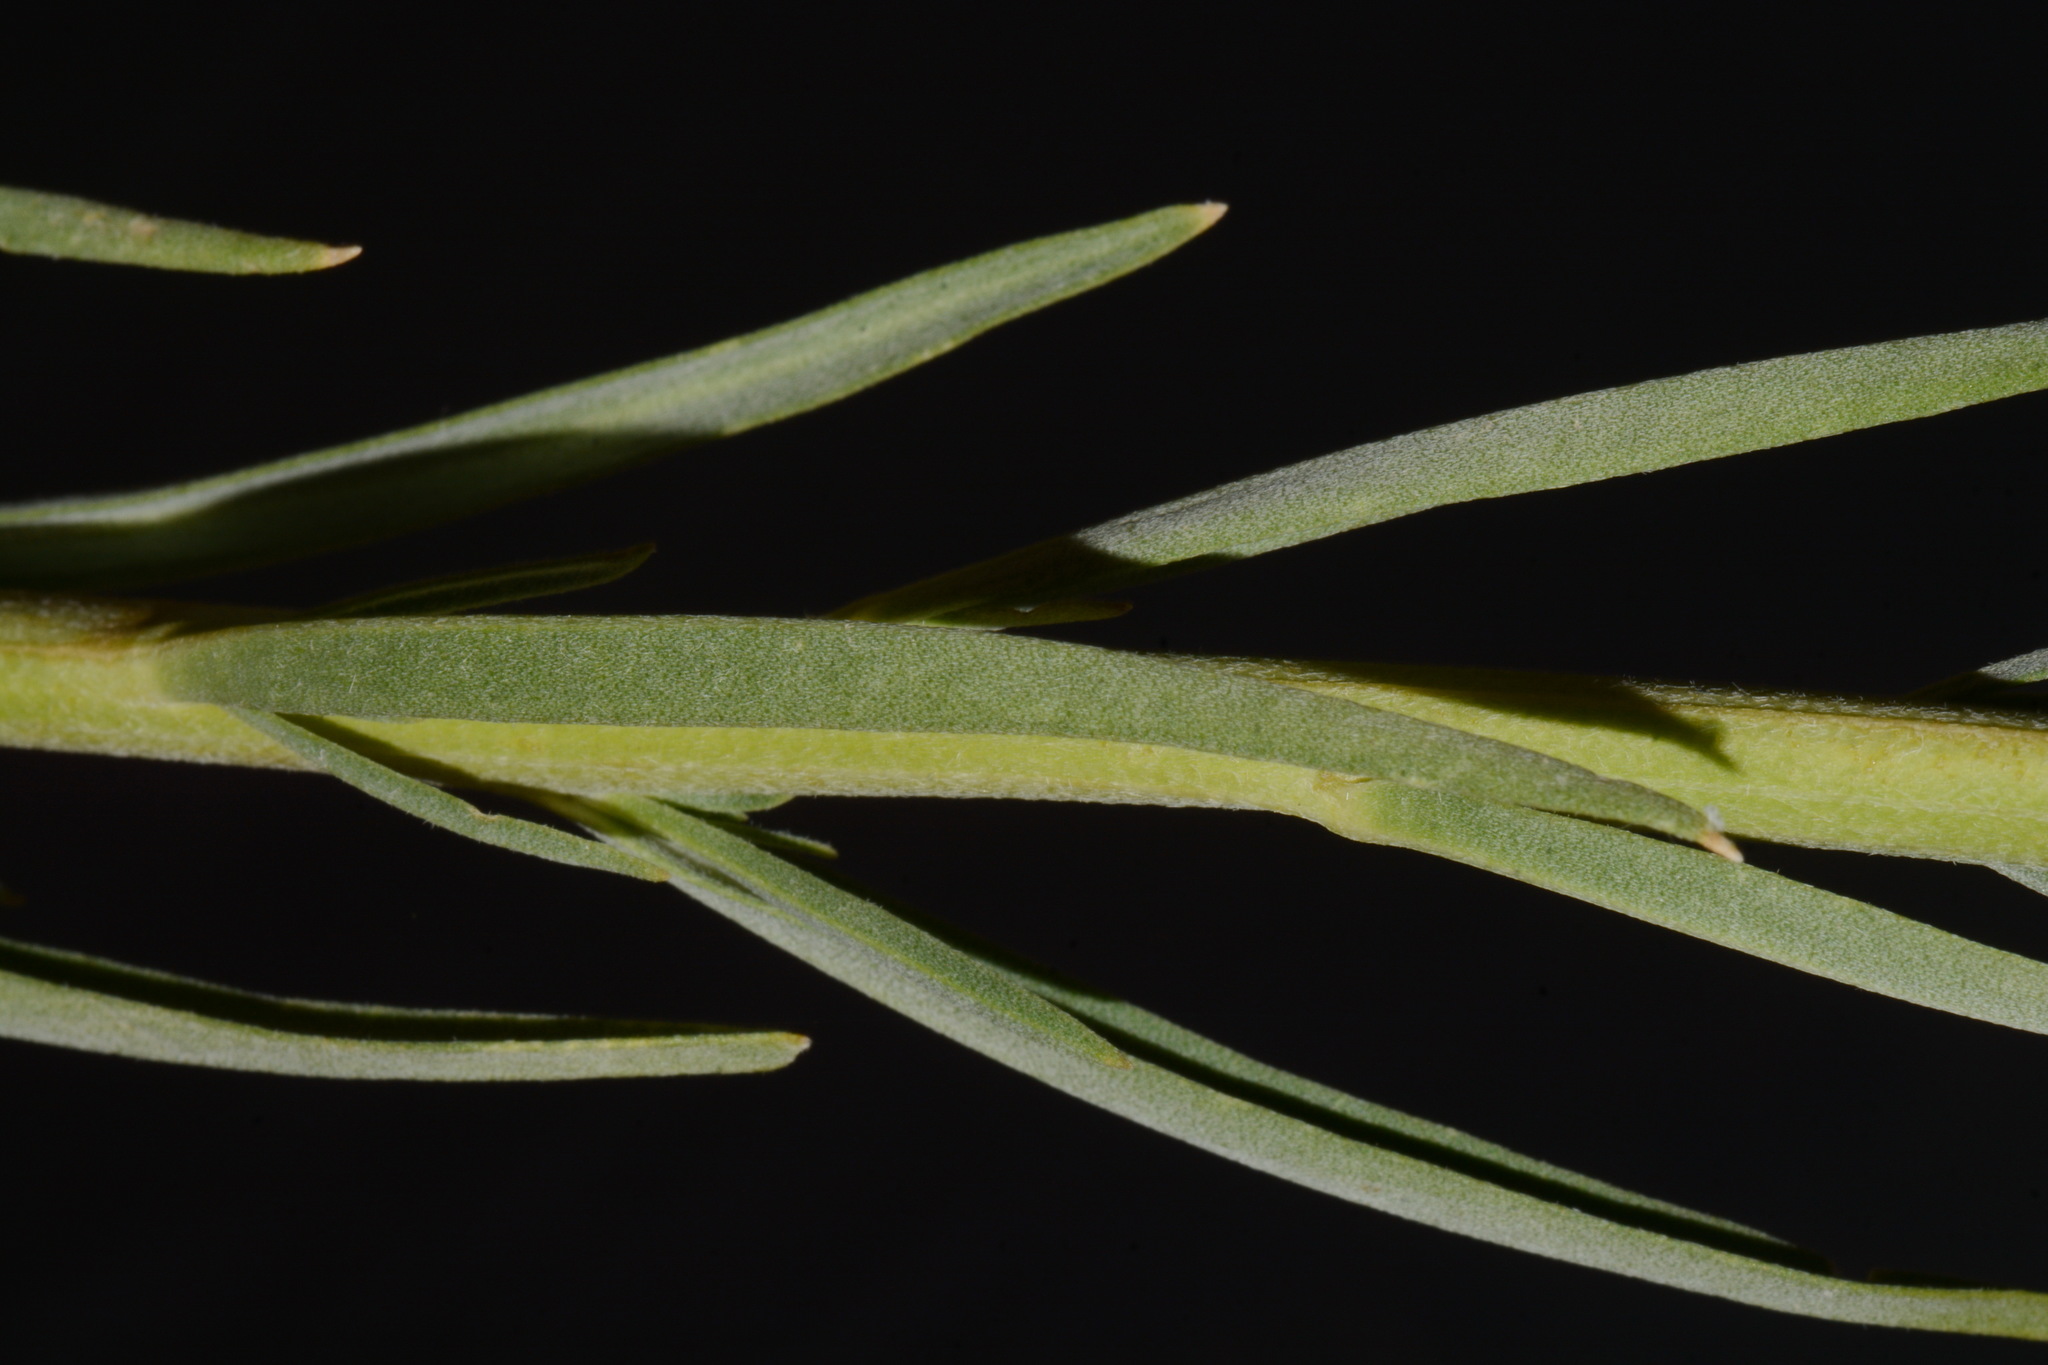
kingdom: Plantae
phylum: Tracheophyta
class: Magnoliopsida
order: Brassicales
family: Brassicaceae
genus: Erysimum
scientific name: Erysimum capitatum
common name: Western wallflower
